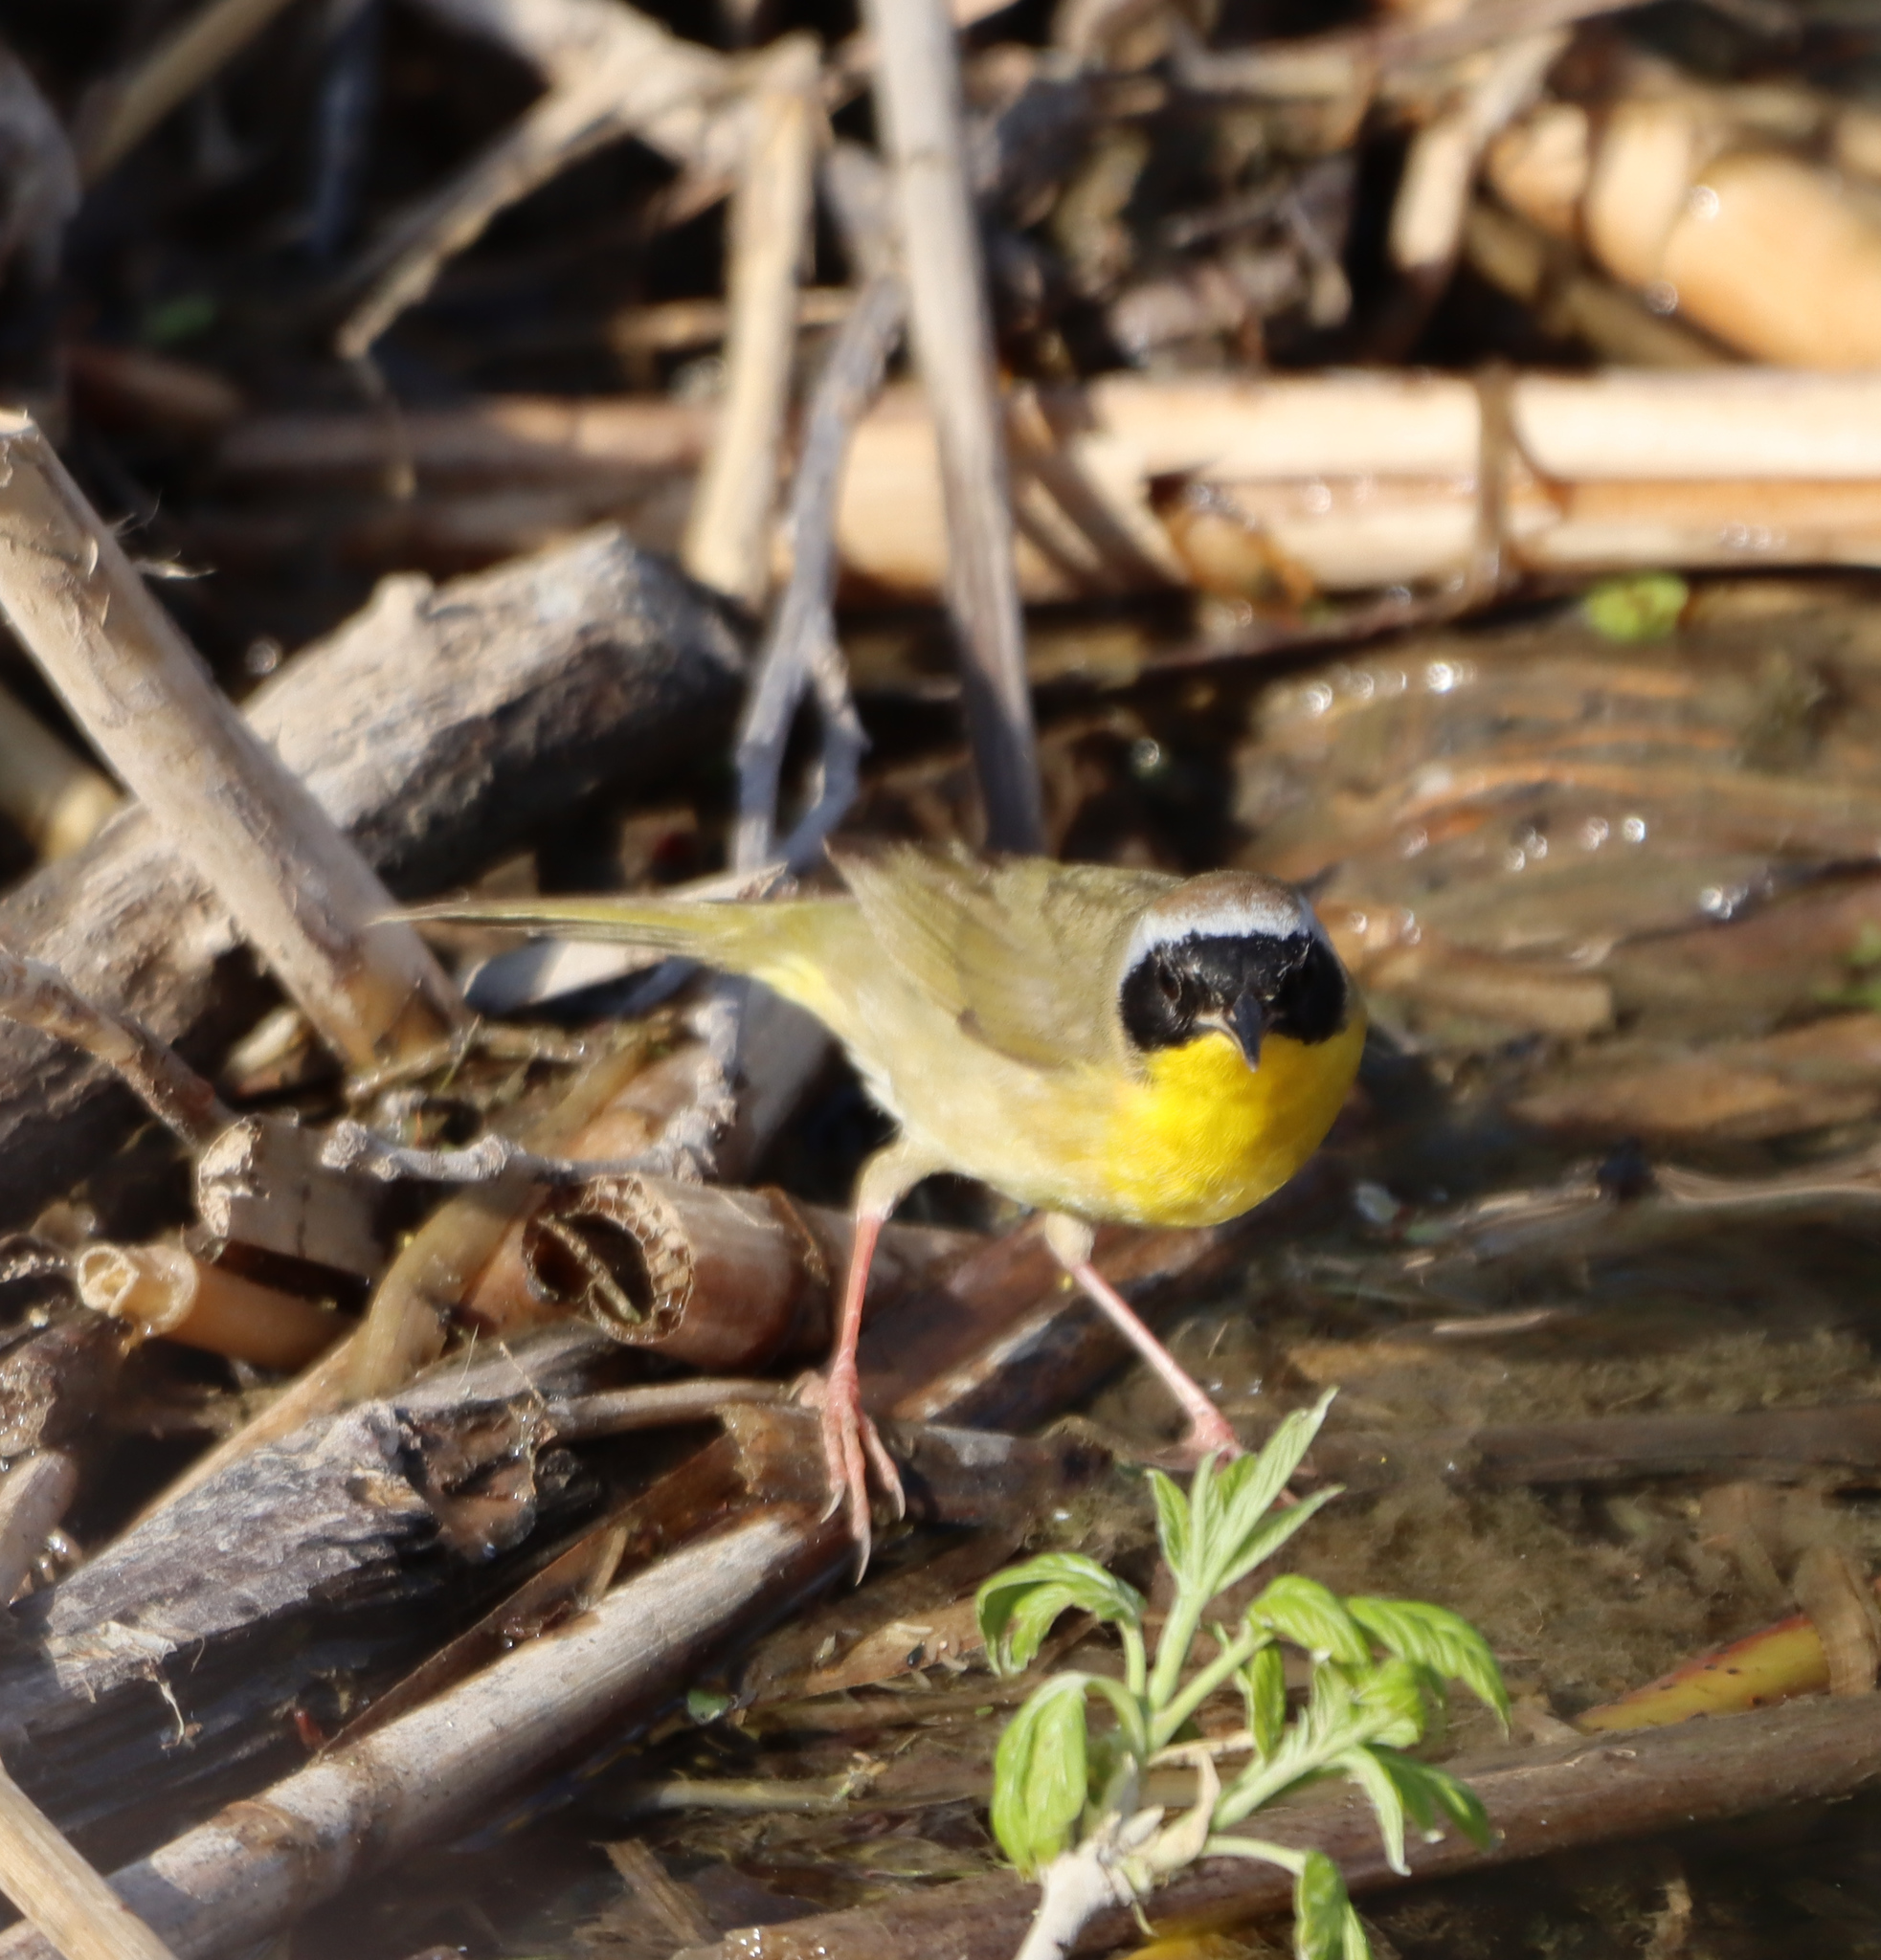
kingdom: Animalia
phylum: Chordata
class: Aves
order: Passeriformes
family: Parulidae
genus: Geothlypis
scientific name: Geothlypis trichas
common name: Common yellowthroat
